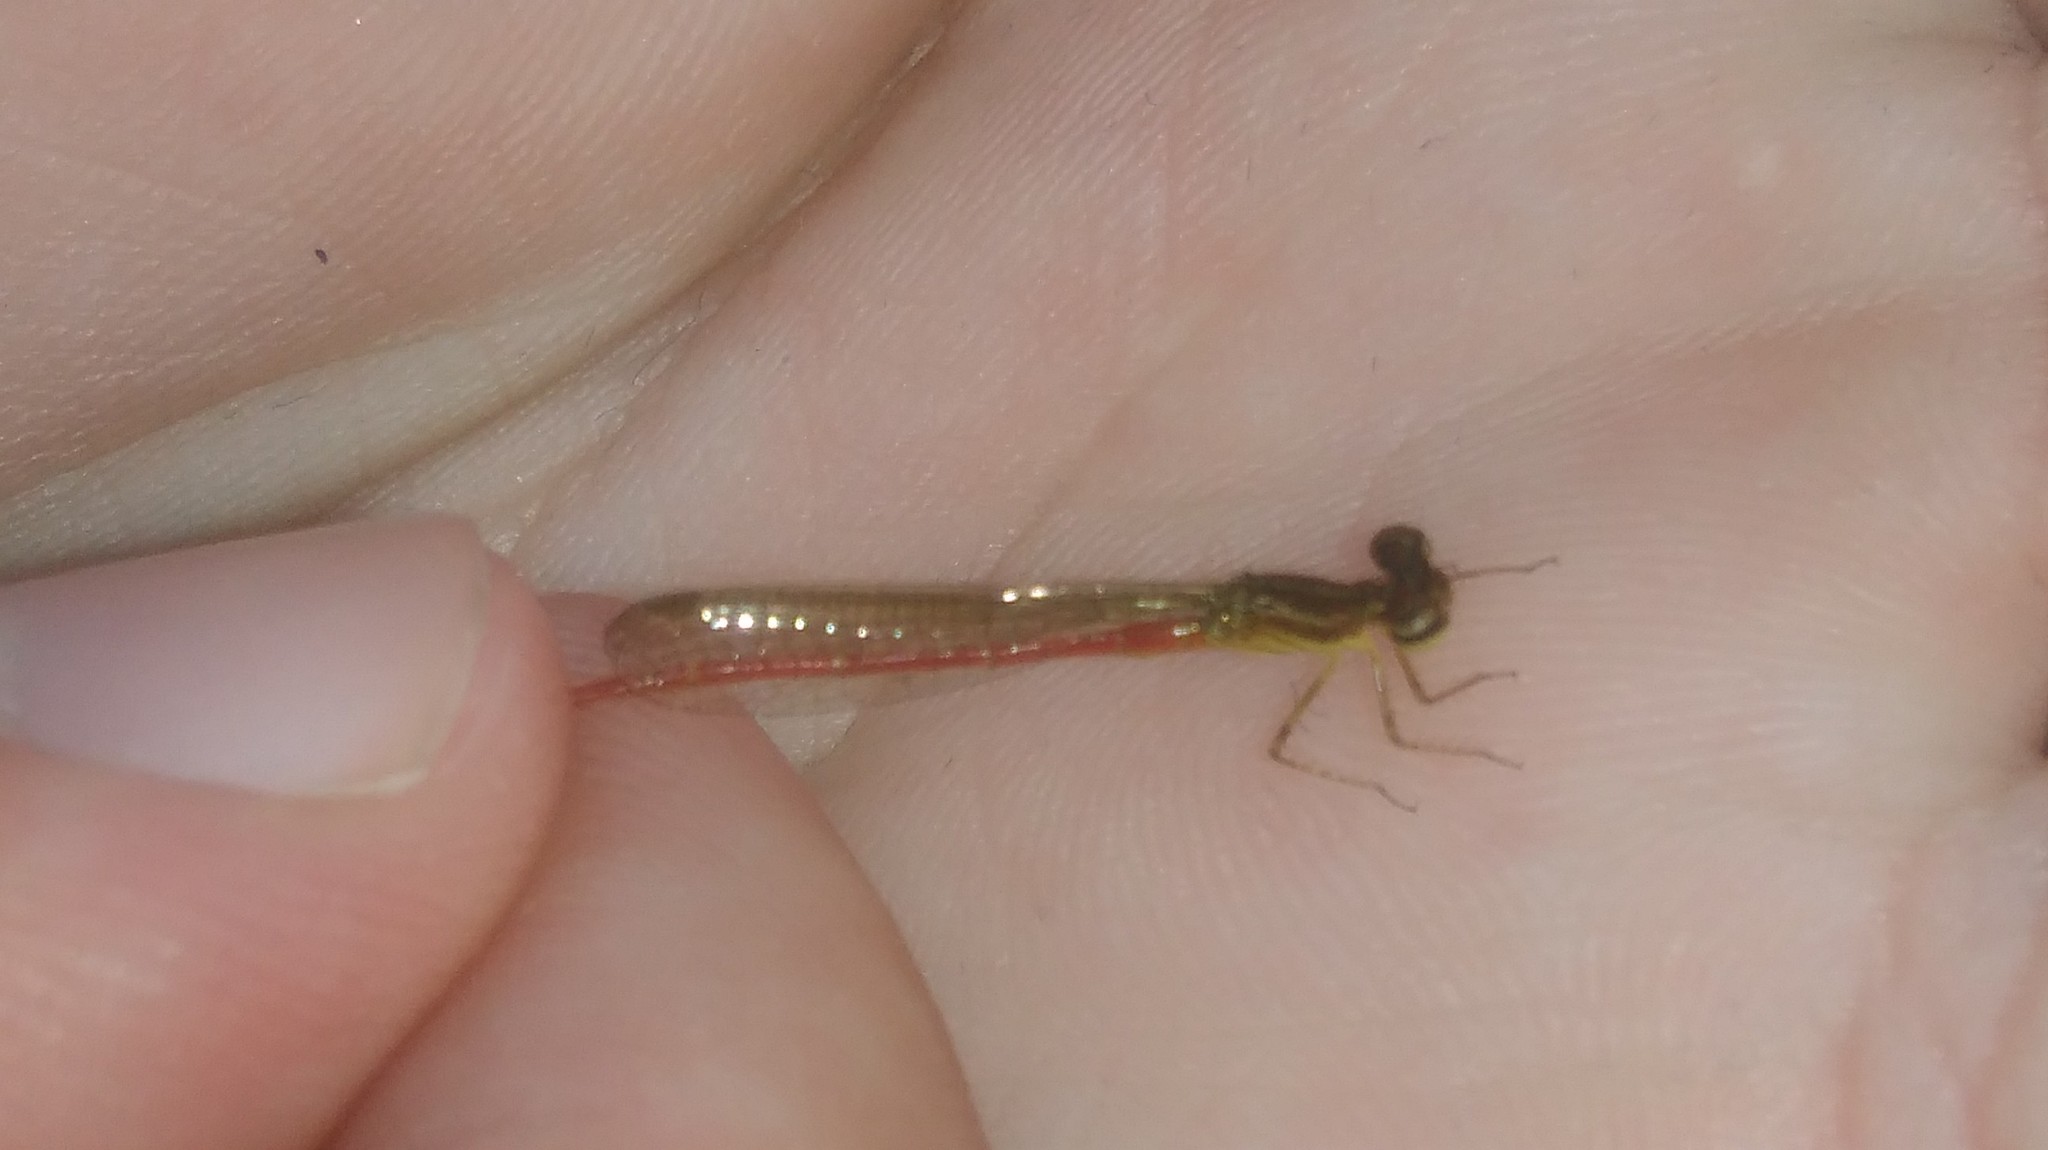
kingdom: Animalia
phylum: Arthropoda
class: Insecta
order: Odonata
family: Coenagrionidae
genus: Telebasis
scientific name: Telebasis willinki
